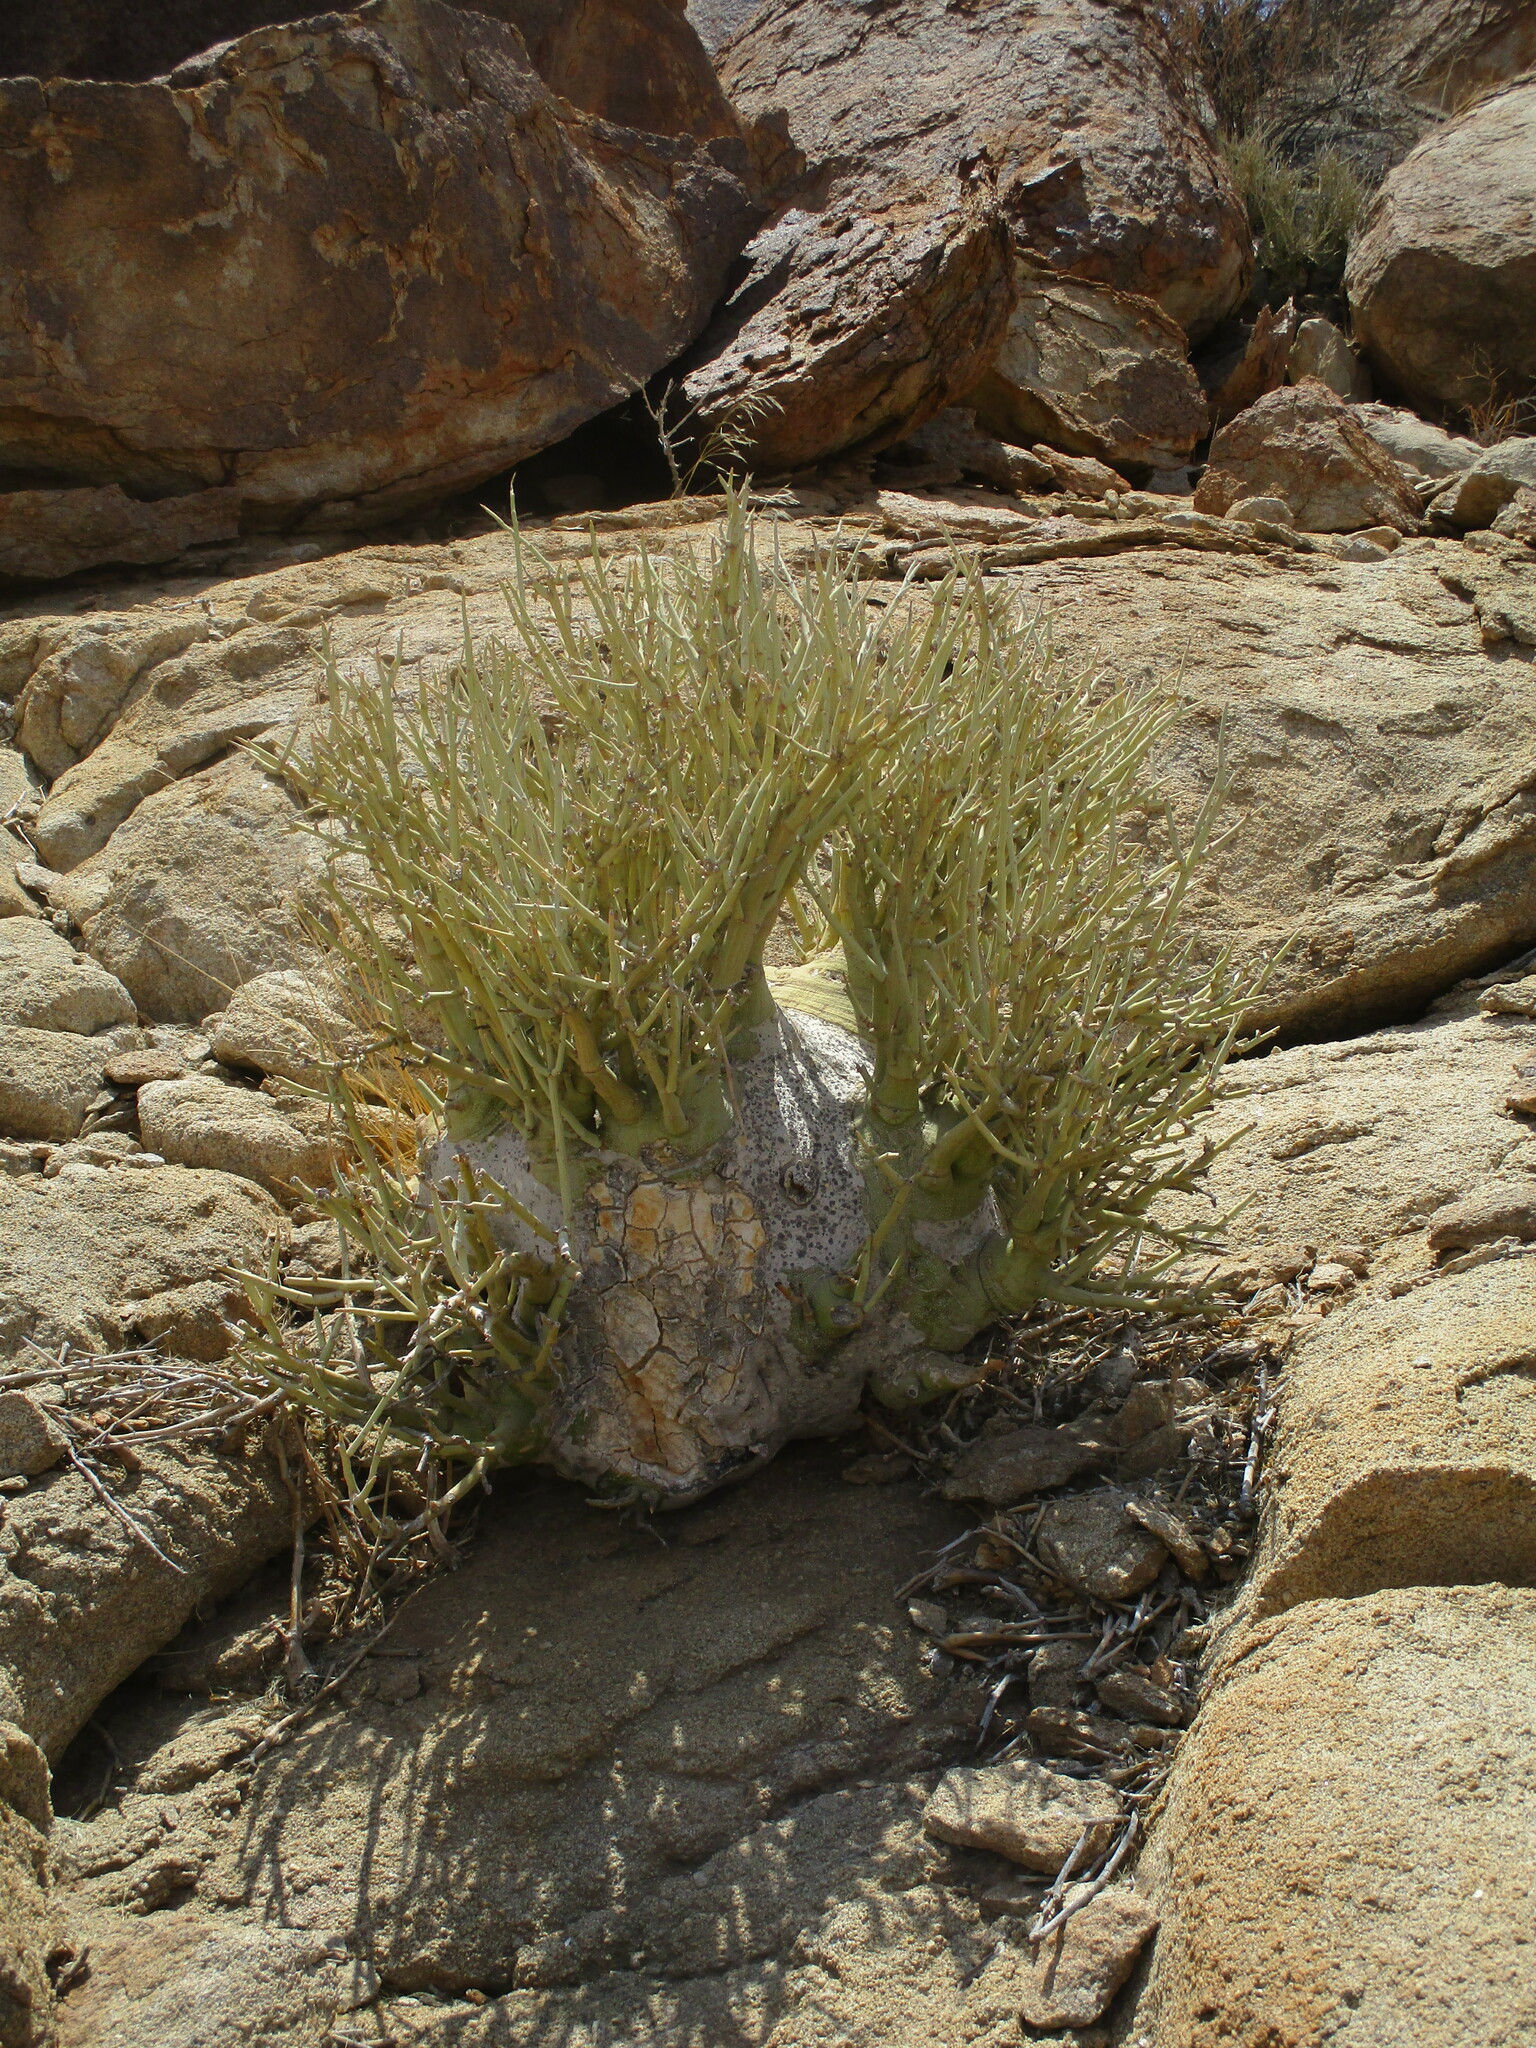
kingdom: Plantae
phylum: Tracheophyta
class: Magnoliopsida
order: Malpighiales
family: Passifloraceae
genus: Adenia
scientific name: Adenia pechuelii
